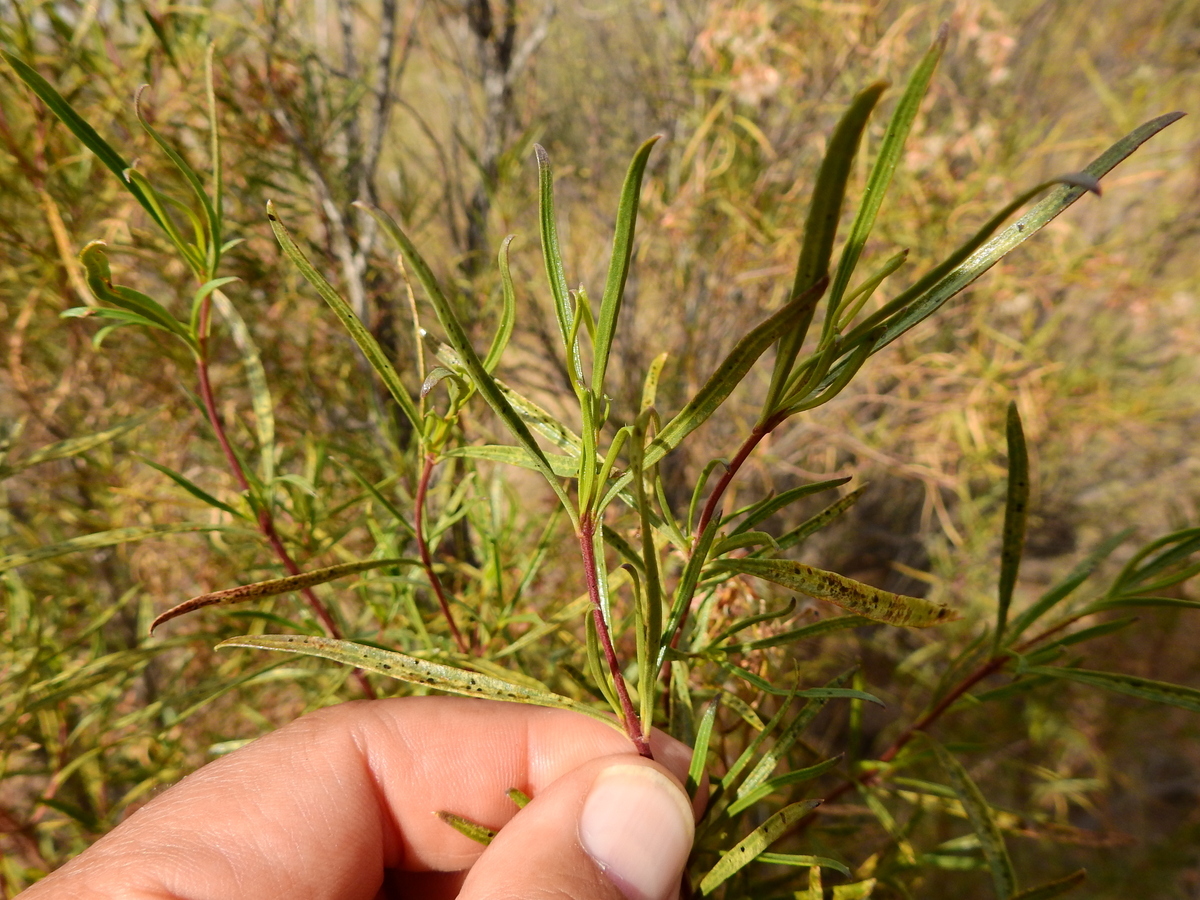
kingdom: Plantae
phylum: Tracheophyta
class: Magnoliopsida
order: Asterales
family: Asteraceae
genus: Acanthostyles
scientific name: Acanthostyles buniifolius
